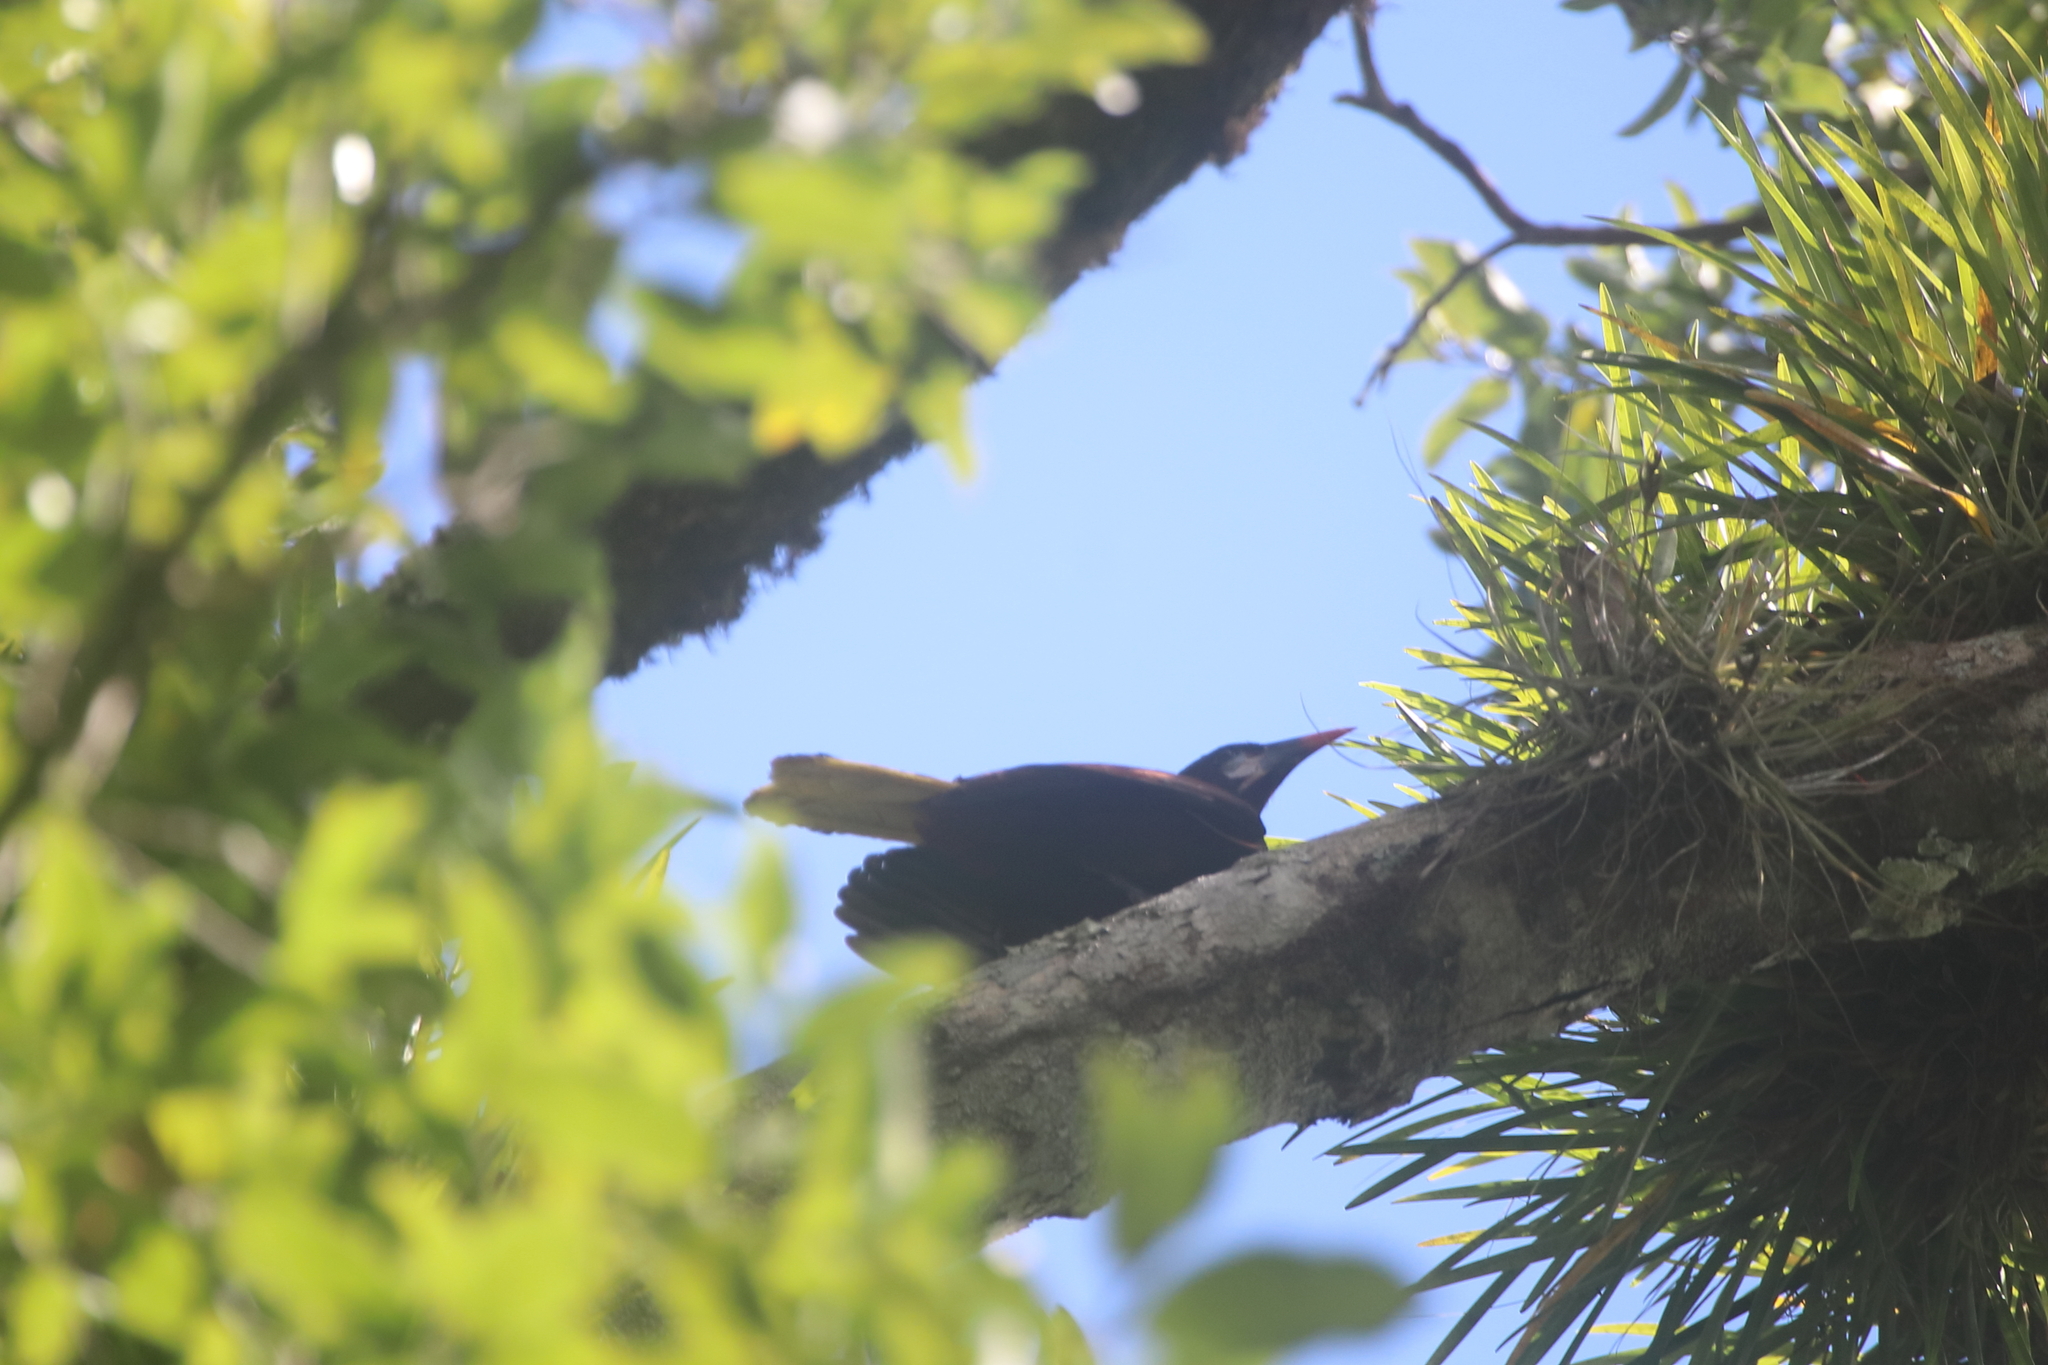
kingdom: Animalia
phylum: Chordata
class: Aves
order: Passeriformes
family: Icteridae
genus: Psarocolius
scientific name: Psarocolius montezuma
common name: Montezuma oropendola
